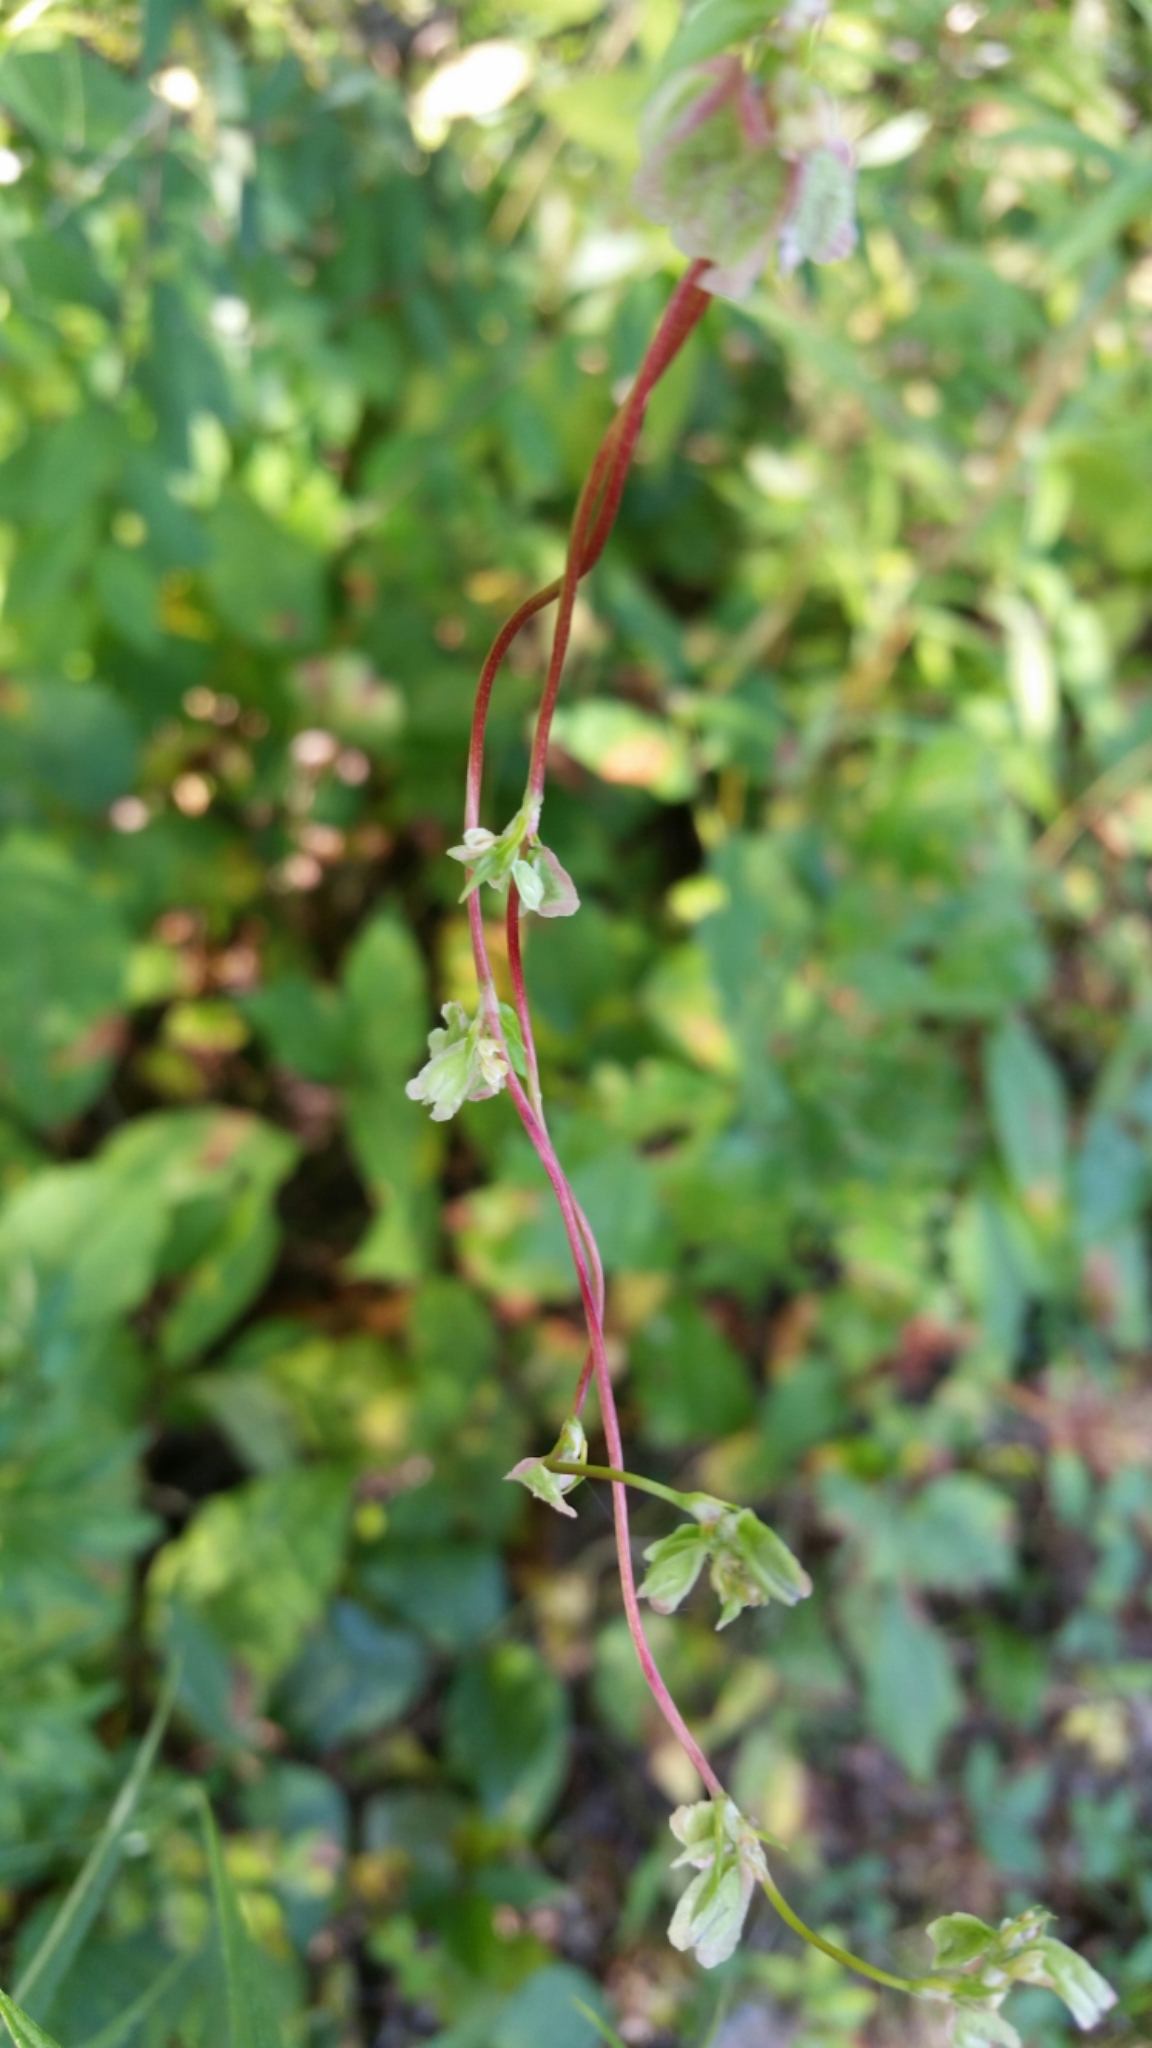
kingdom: Plantae
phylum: Tracheophyta
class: Magnoliopsida
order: Caryophyllales
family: Polygonaceae
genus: Fallopia
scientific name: Fallopia scandens
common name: Climbing false buckwheat
